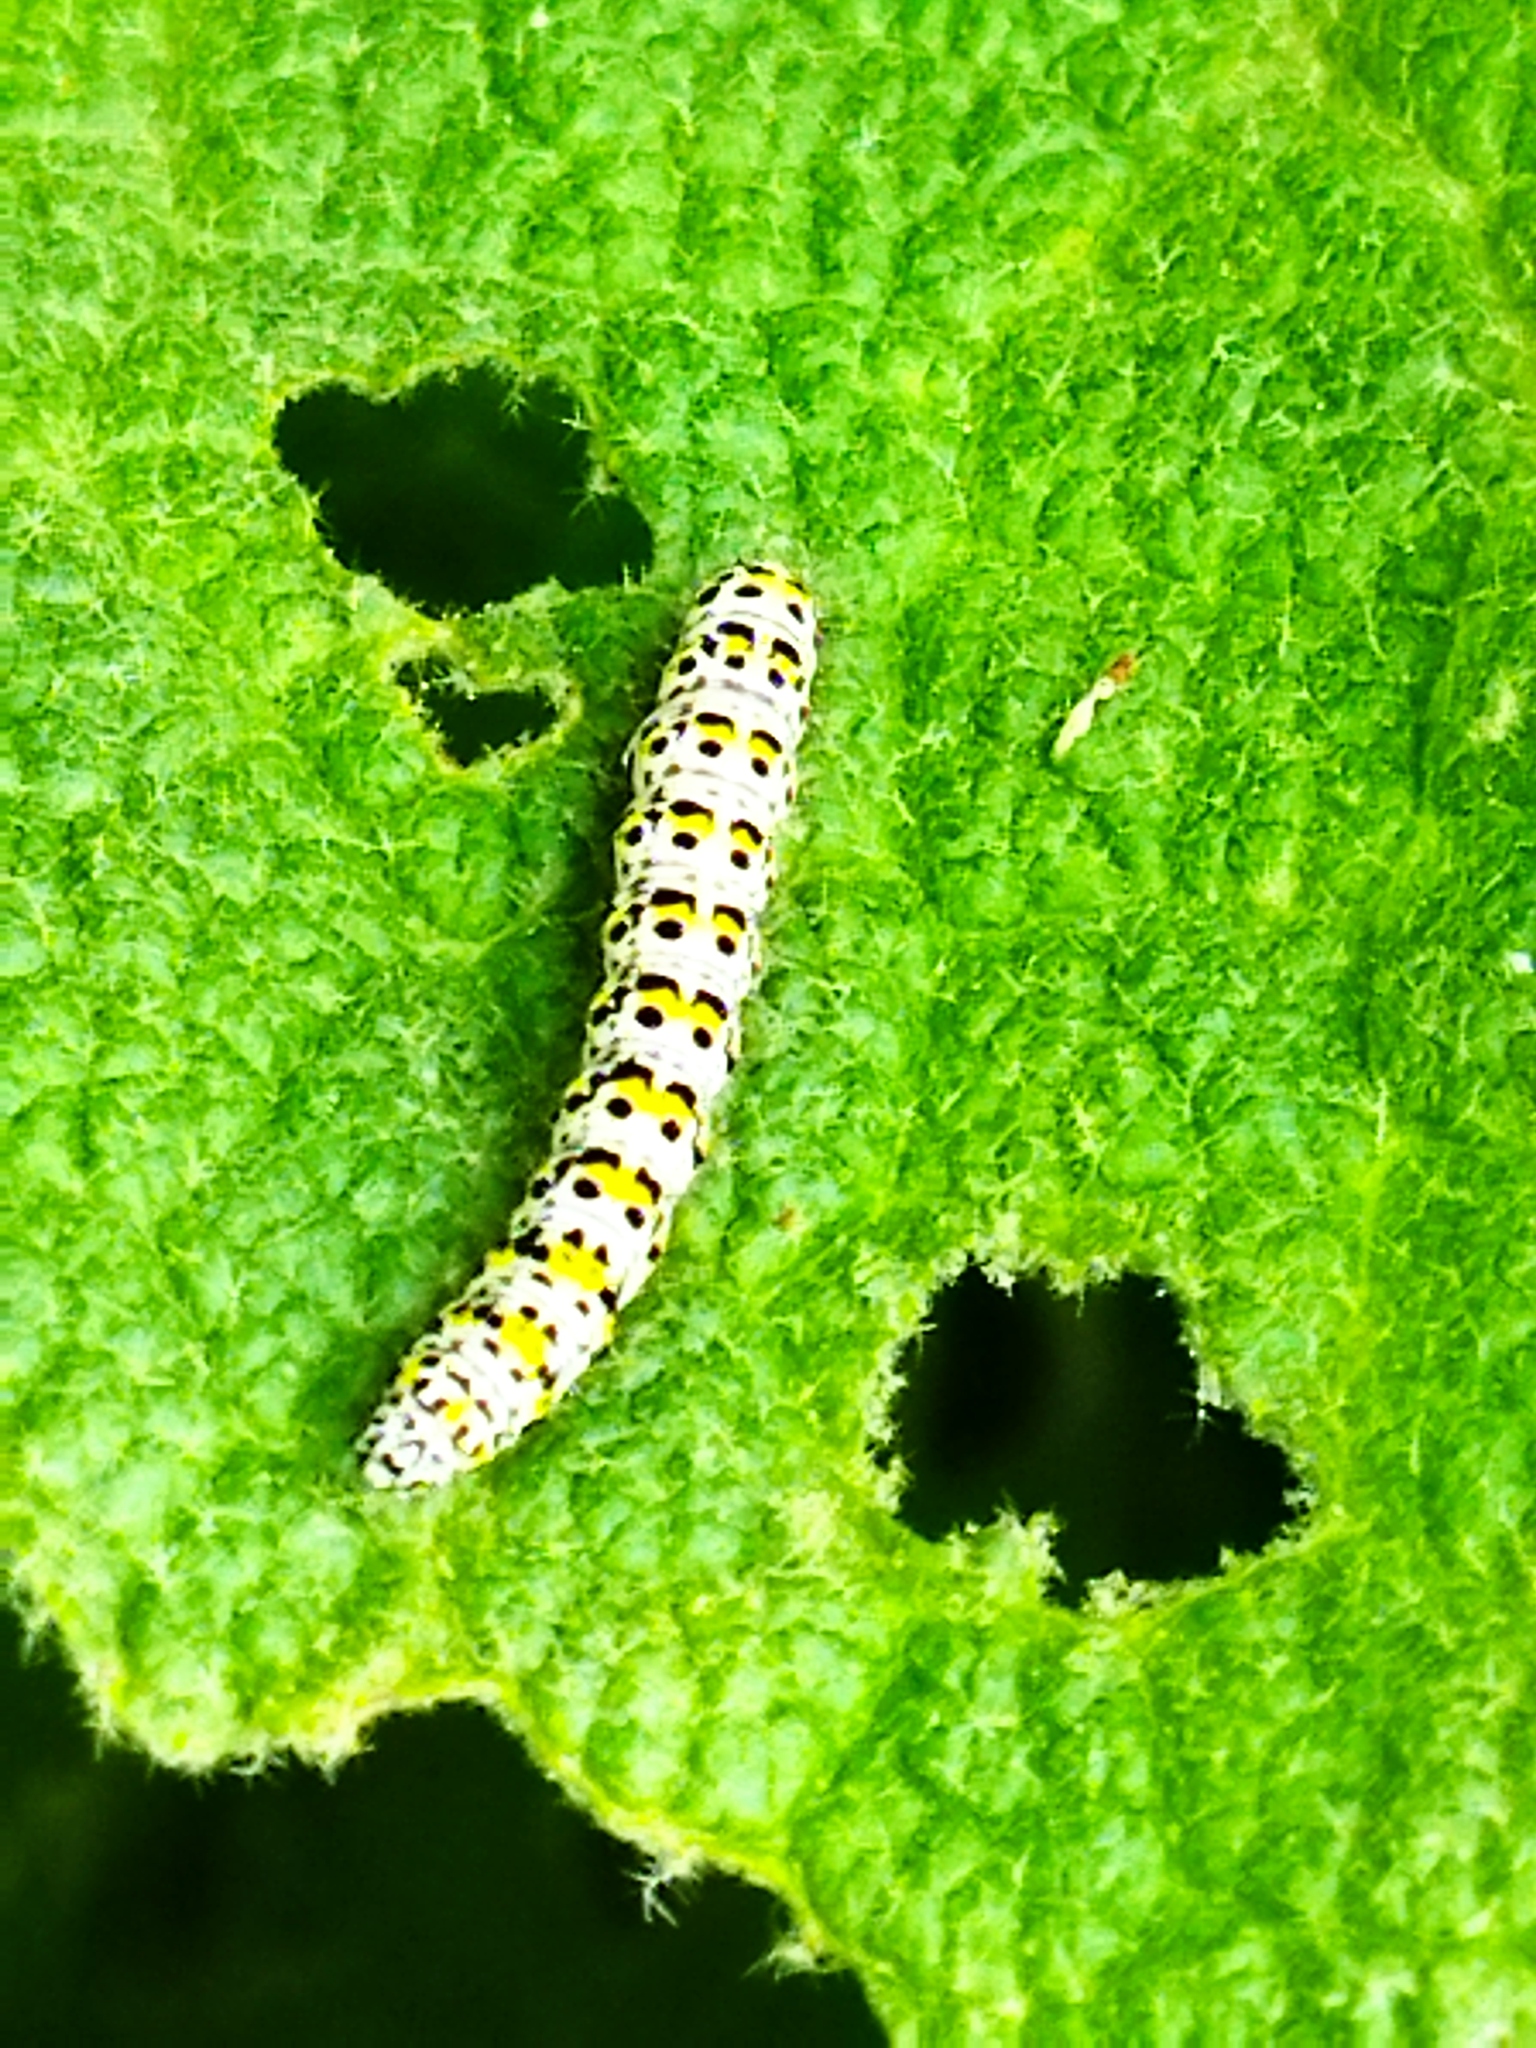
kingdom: Animalia
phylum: Arthropoda
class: Insecta
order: Lepidoptera
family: Noctuidae
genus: Cucullia
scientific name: Cucullia verbasci
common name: Mullein
